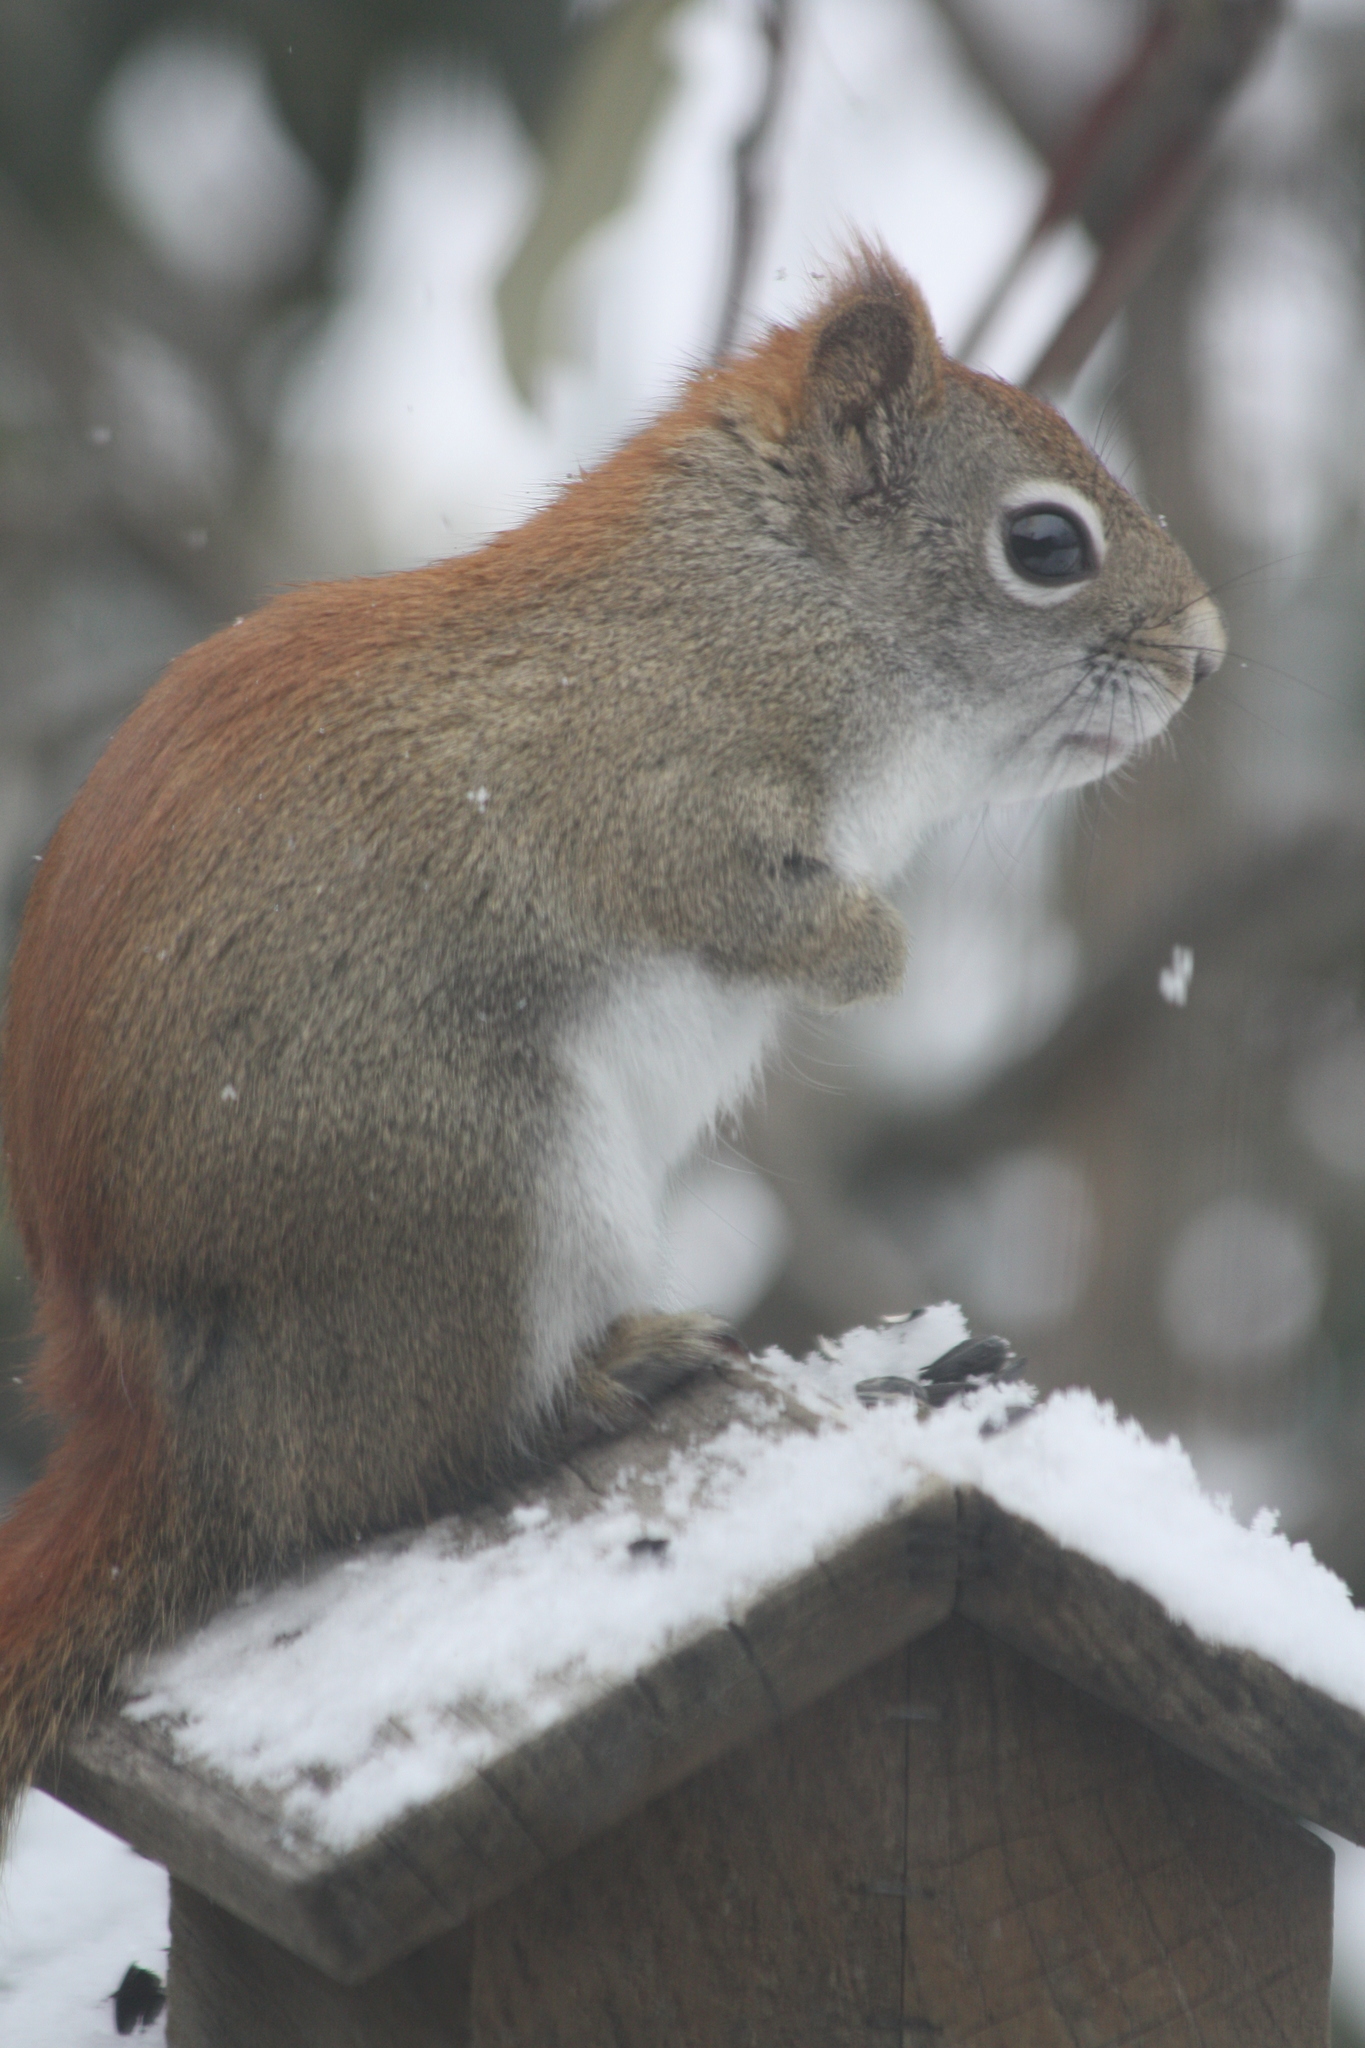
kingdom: Animalia
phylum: Chordata
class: Mammalia
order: Rodentia
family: Sciuridae
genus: Tamiasciurus
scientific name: Tamiasciurus hudsonicus
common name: Red squirrel
